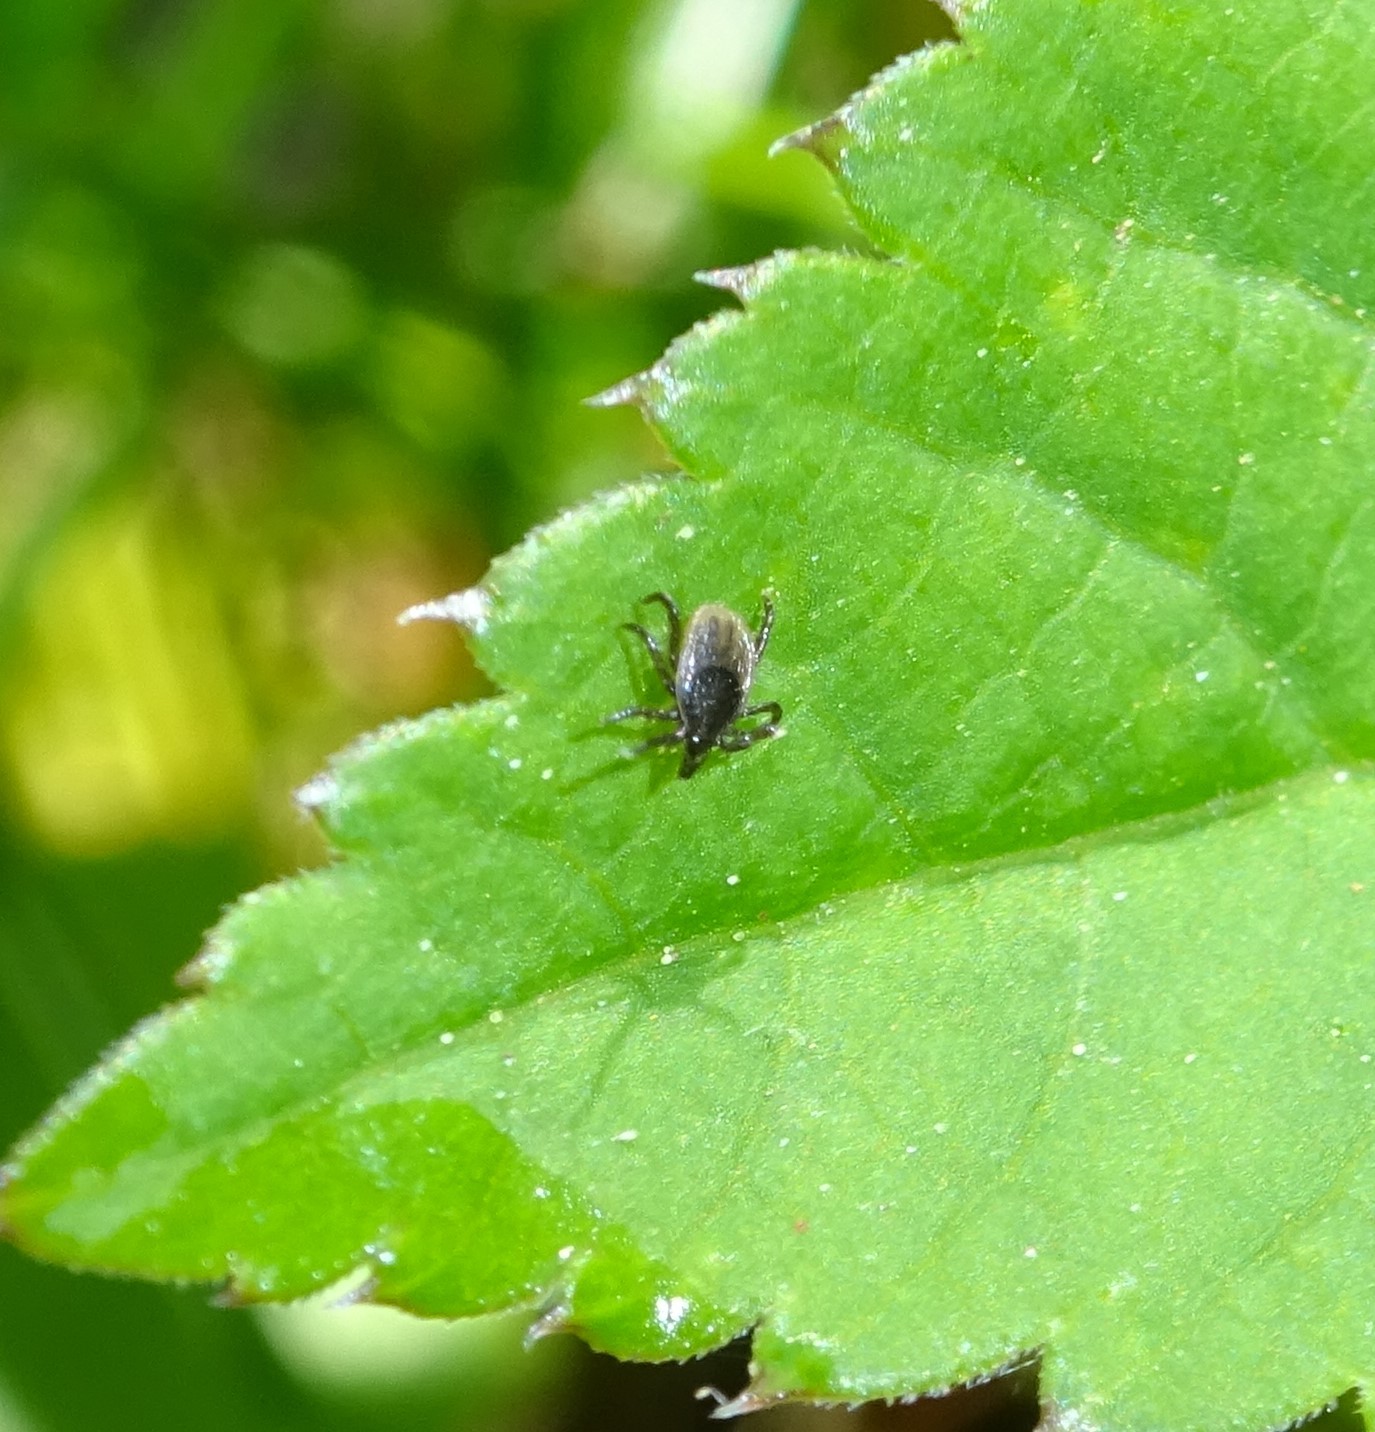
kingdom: Animalia
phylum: Arthropoda
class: Arachnida
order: Ixodida
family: Ixodidae
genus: Ixodes
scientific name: Ixodes ricinus
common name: Castor bean tick
